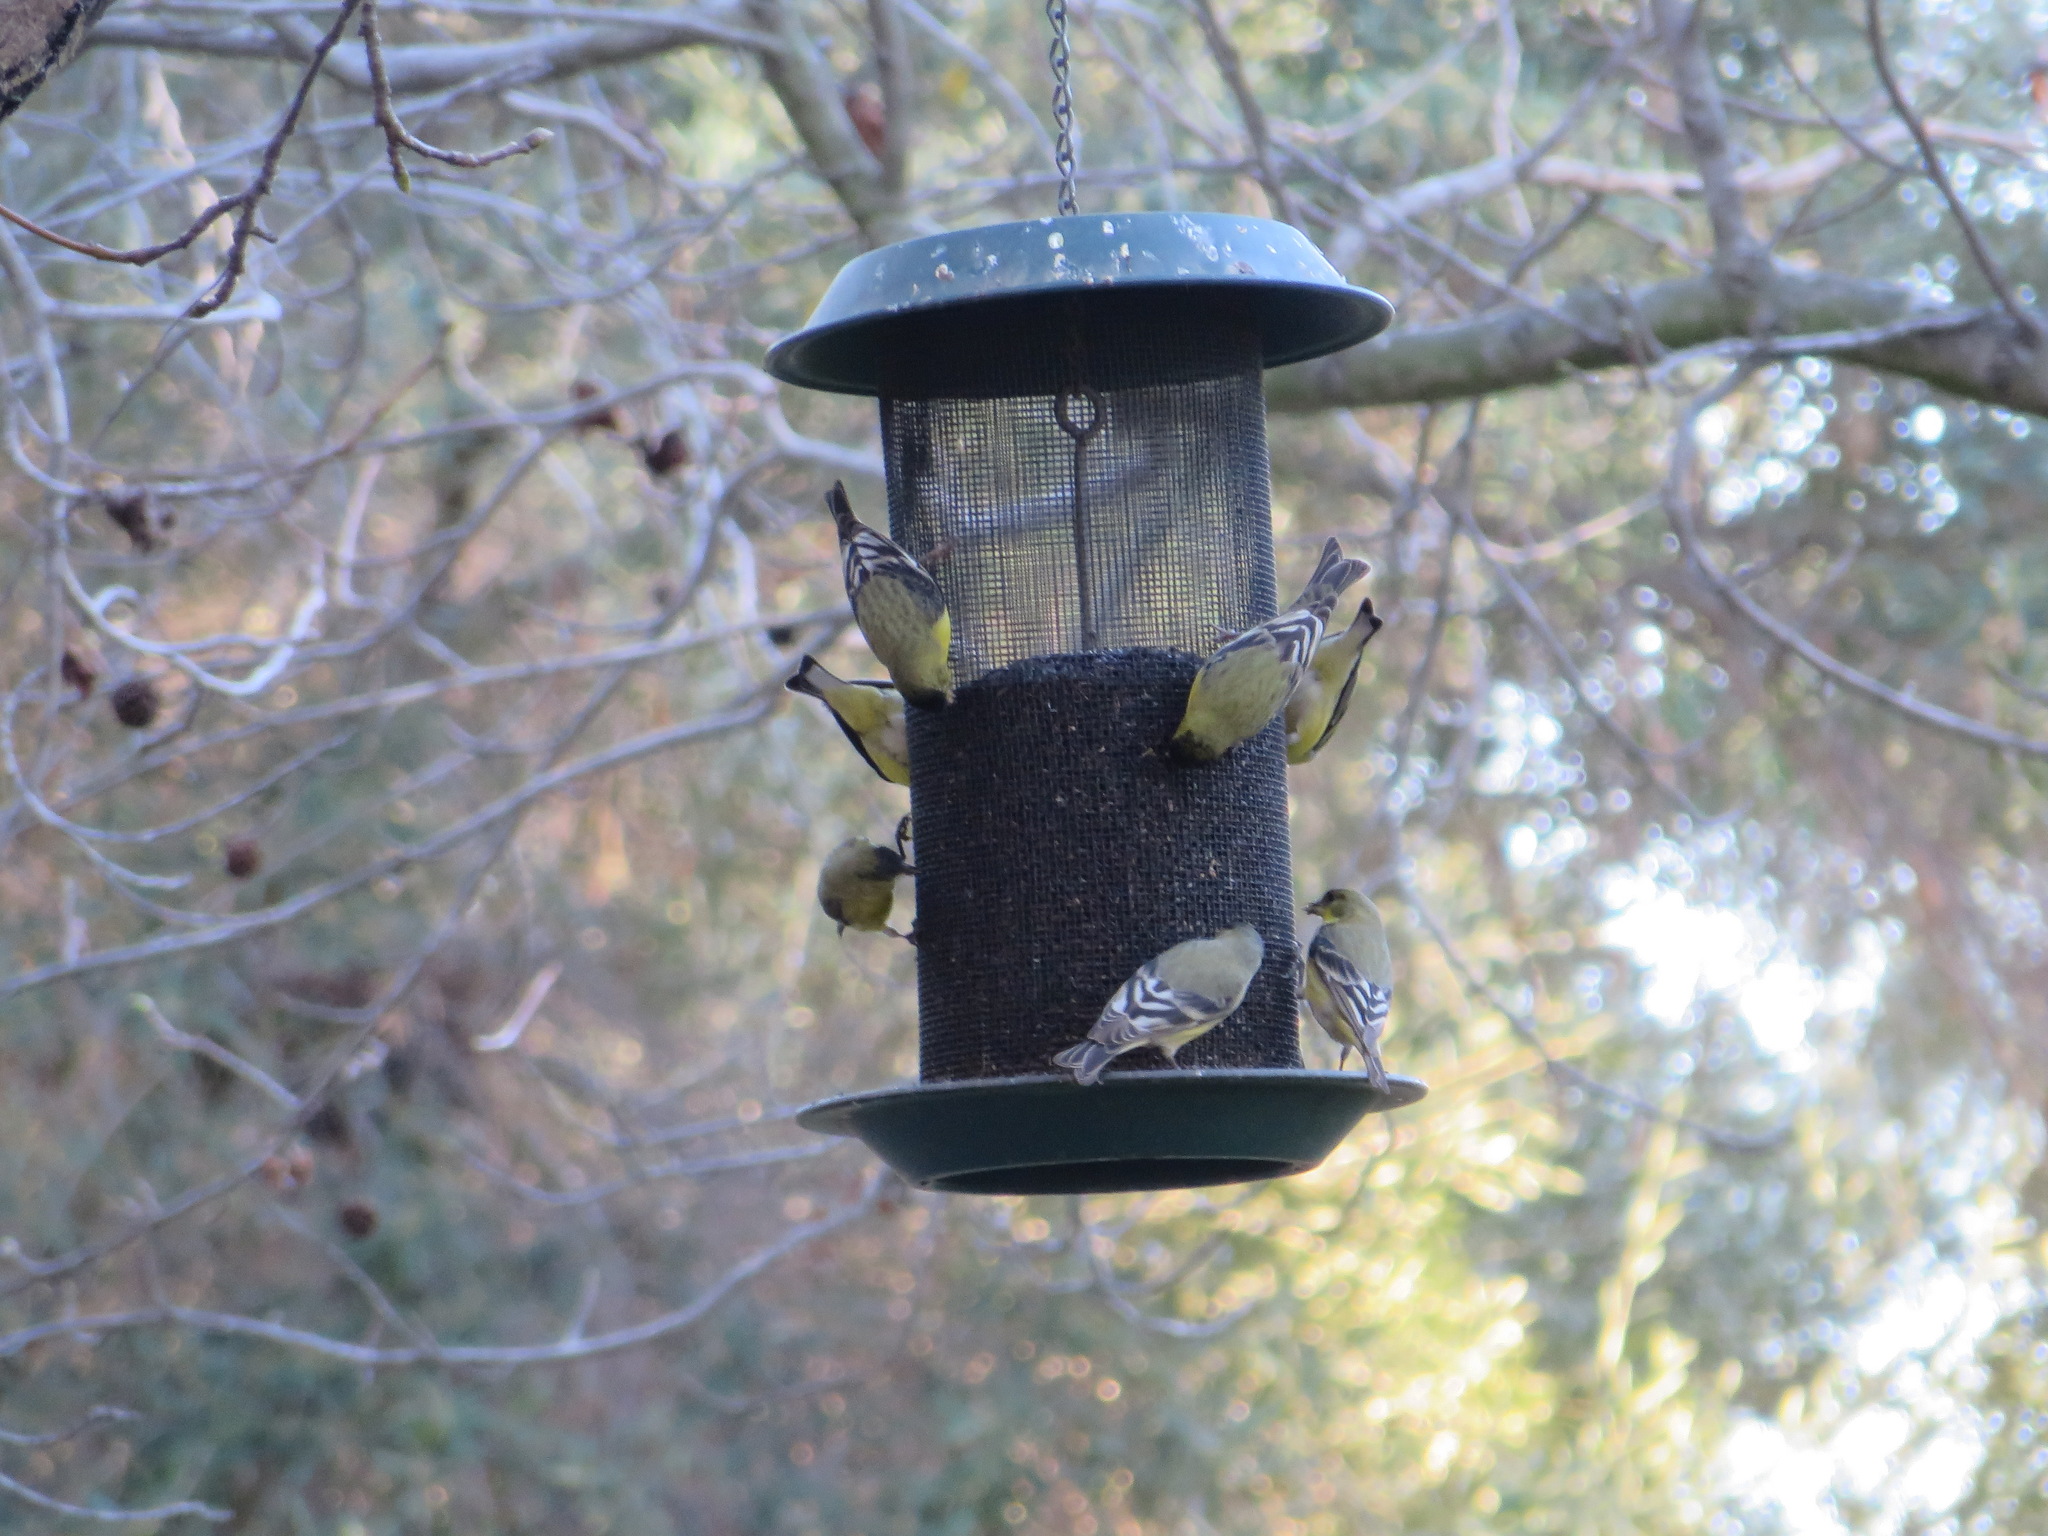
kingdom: Animalia
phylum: Chordata
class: Aves
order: Passeriformes
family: Fringillidae
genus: Spinus
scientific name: Spinus psaltria
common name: Lesser goldfinch
